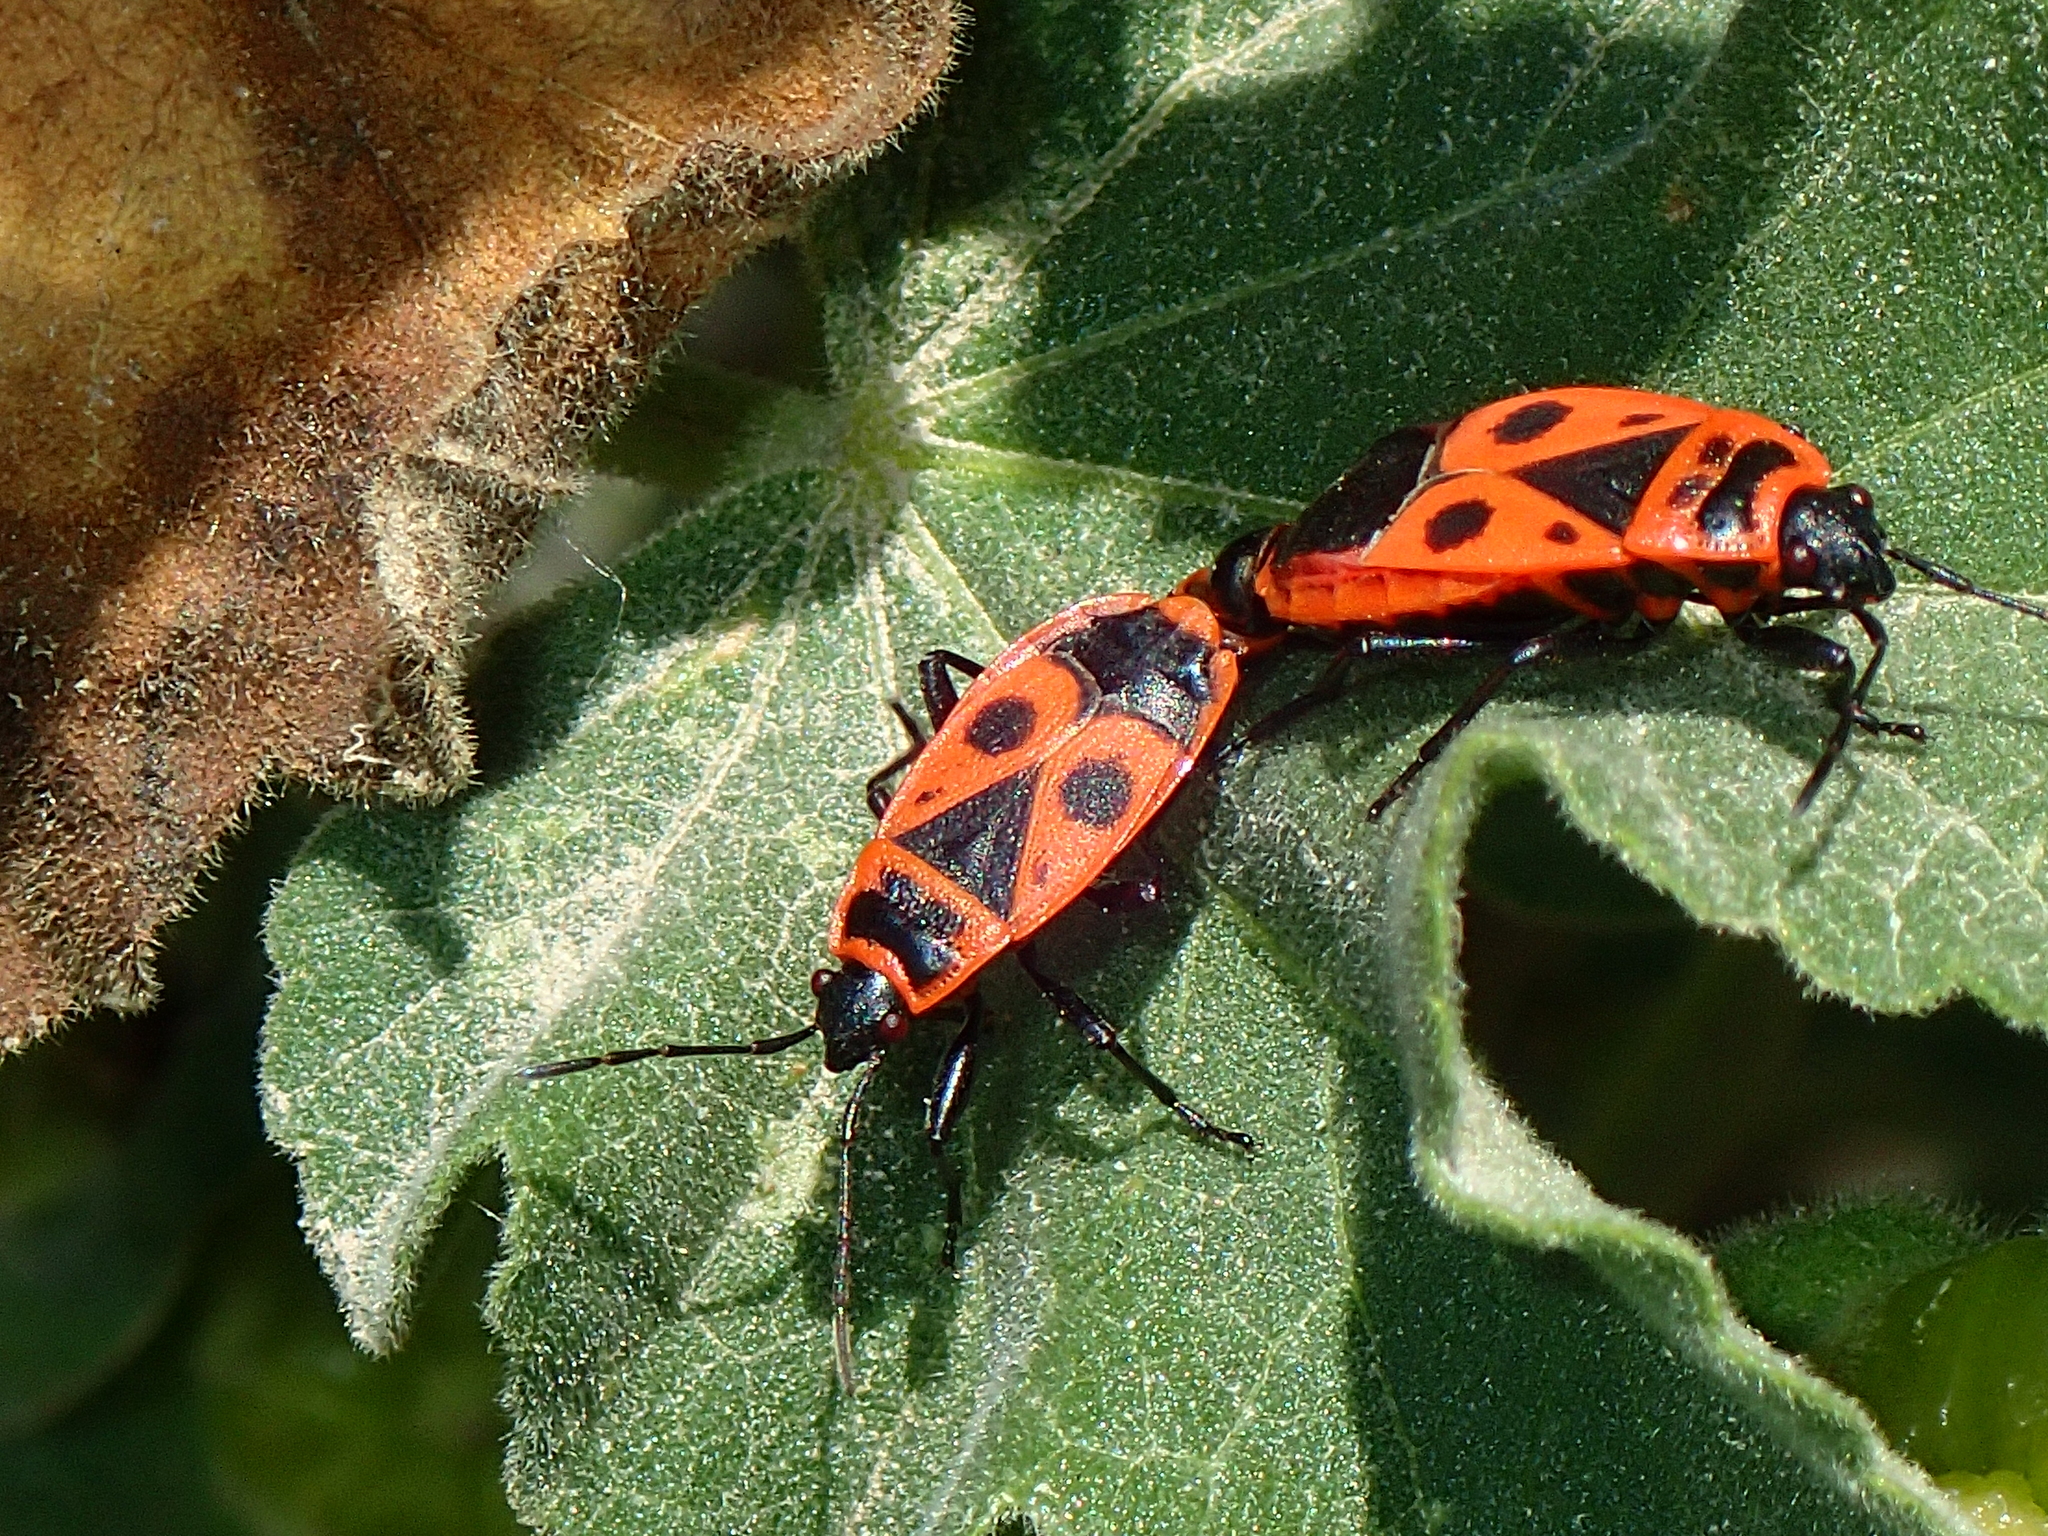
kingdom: Animalia
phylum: Arthropoda
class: Insecta
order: Hemiptera
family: Pyrrhocoridae
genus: Pyrrhocoris
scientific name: Pyrrhocoris apterus
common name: Firebug
